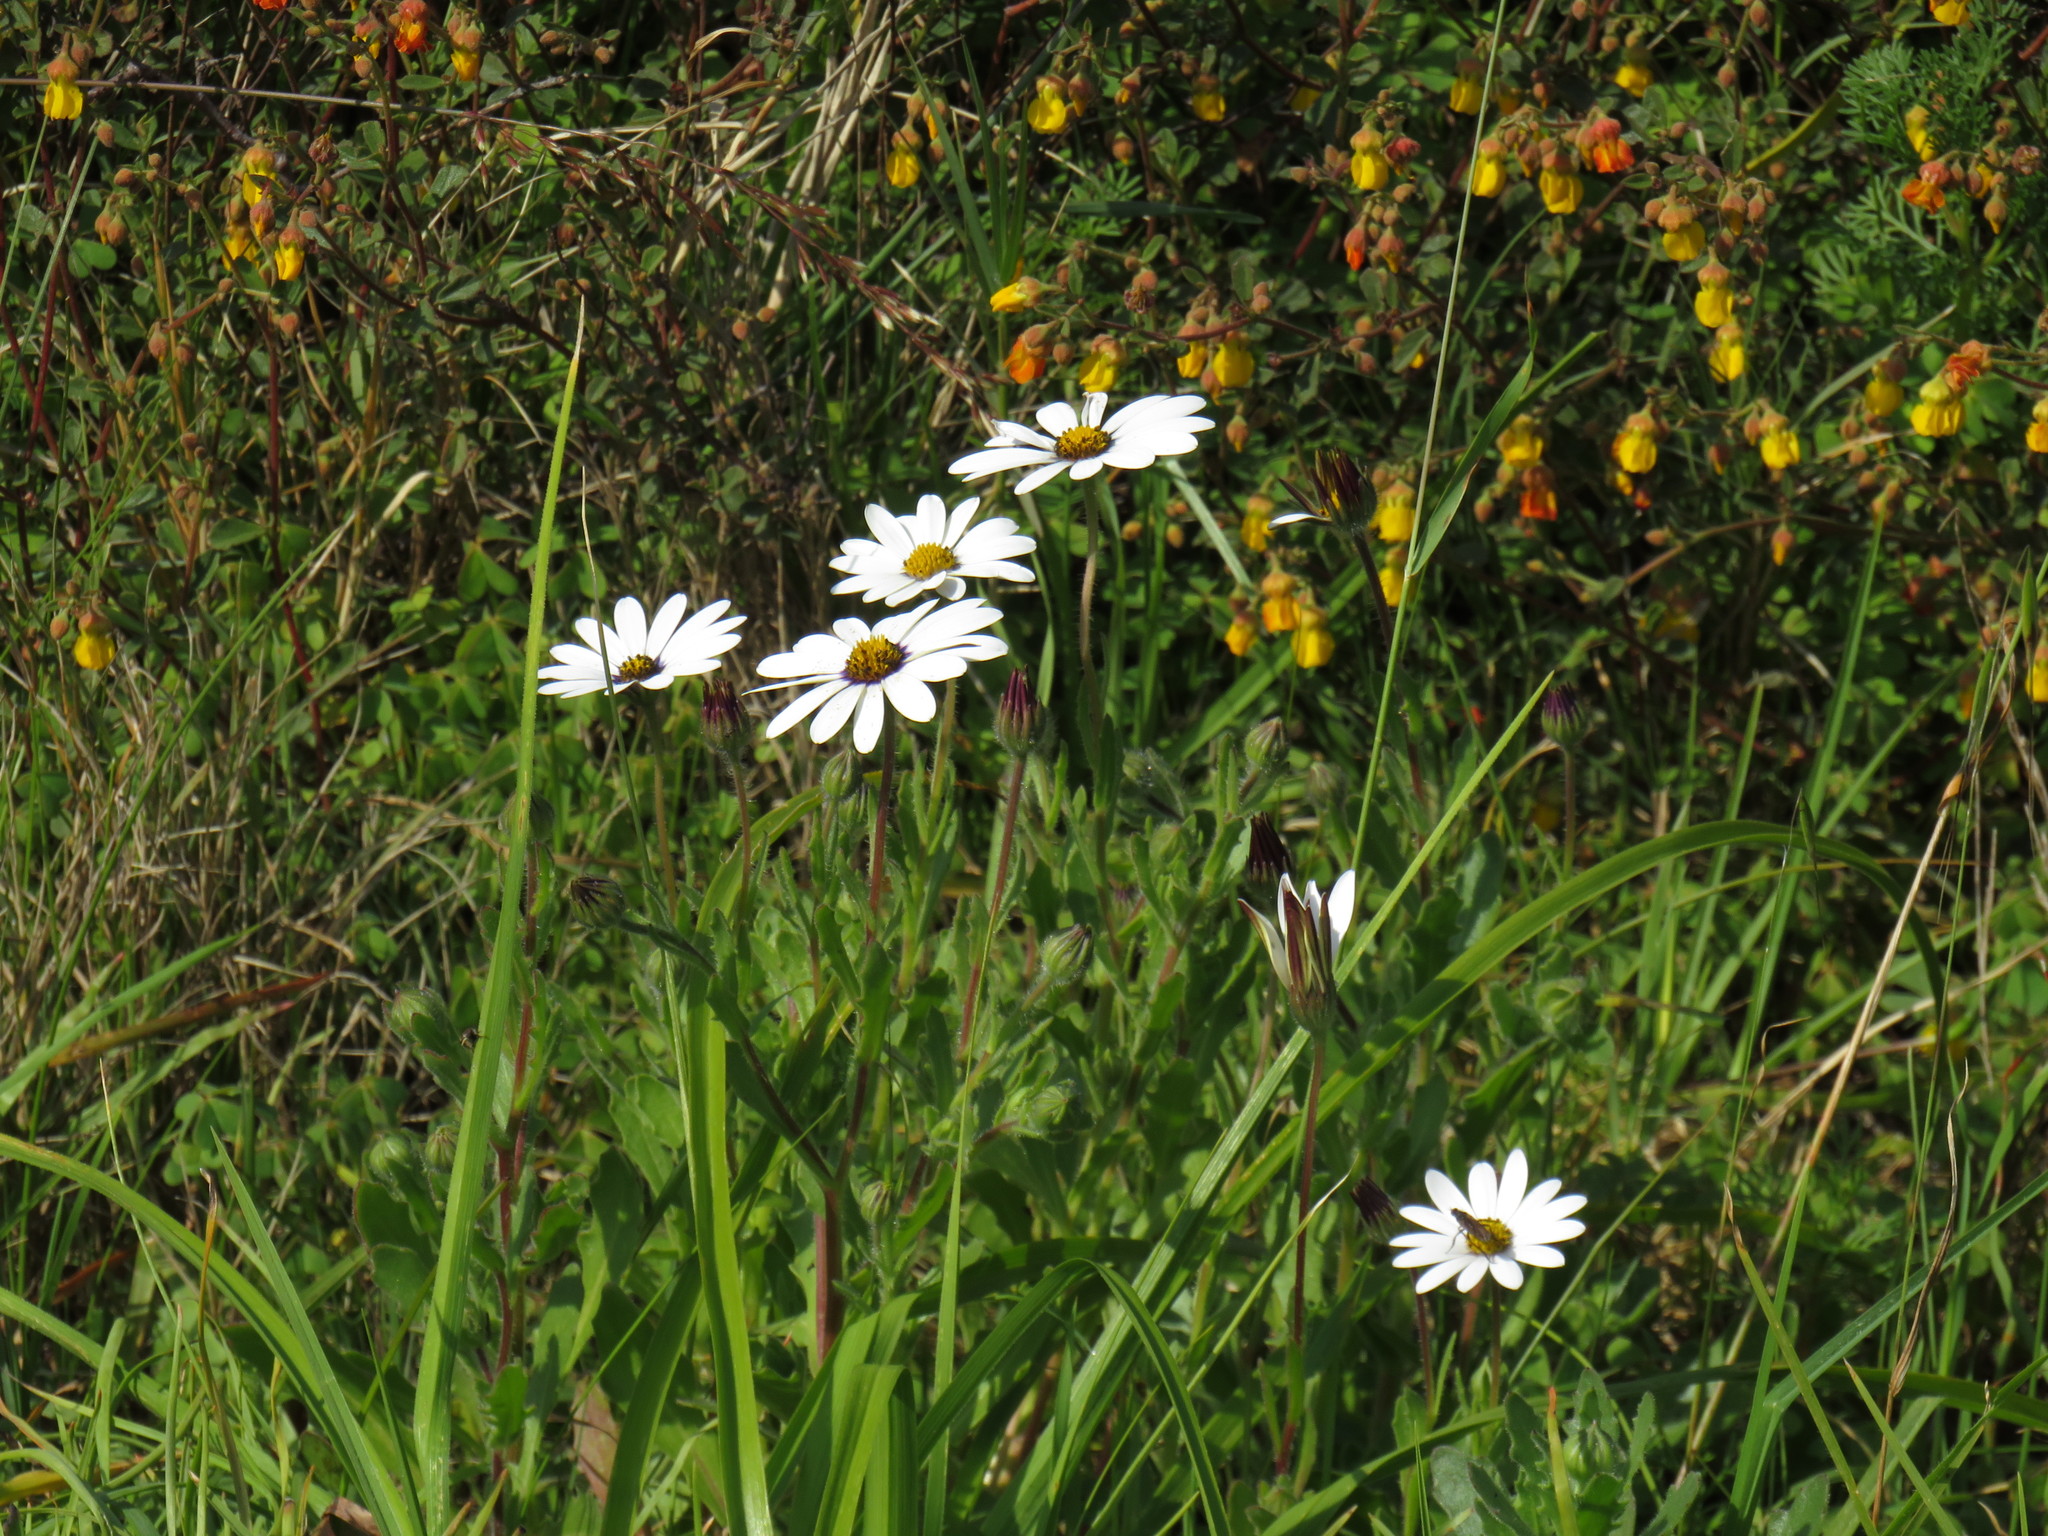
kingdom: Plantae
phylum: Tracheophyta
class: Magnoliopsida
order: Asterales
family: Asteraceae
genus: Dimorphotheca
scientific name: Dimorphotheca pluvialis
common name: Weather prophet
